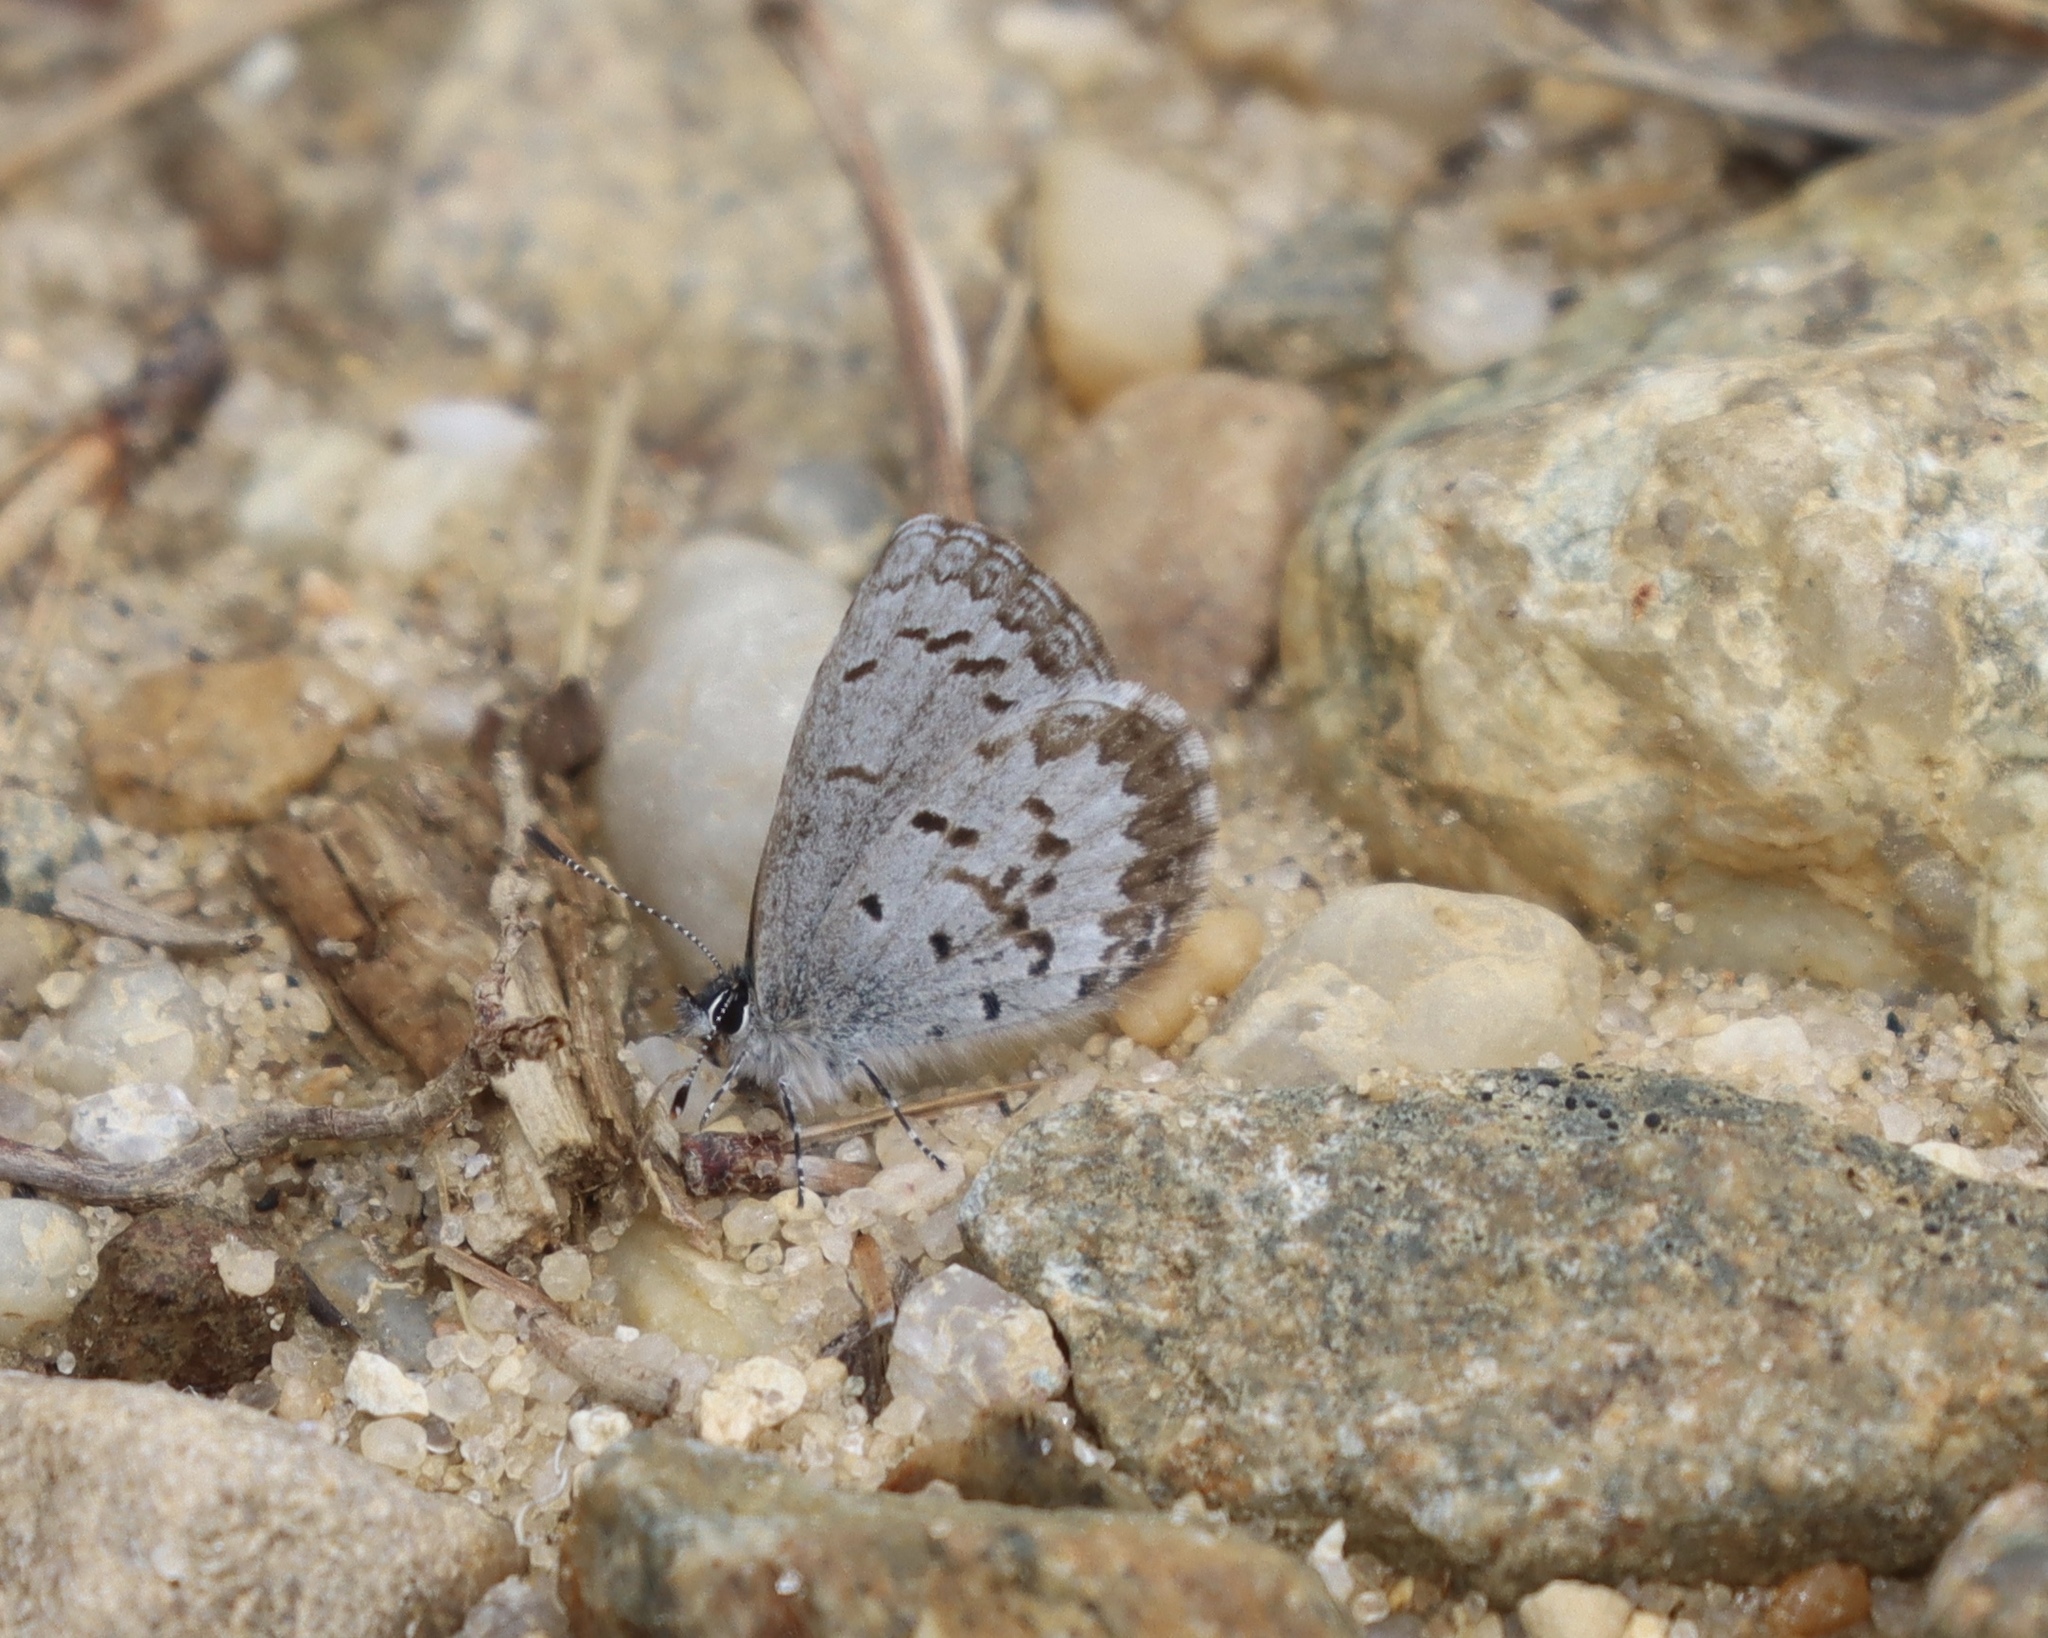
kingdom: Animalia
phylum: Arthropoda
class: Insecta
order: Lepidoptera
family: Lycaenidae
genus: Celastrina
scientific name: Celastrina ladon
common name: Spring azure
